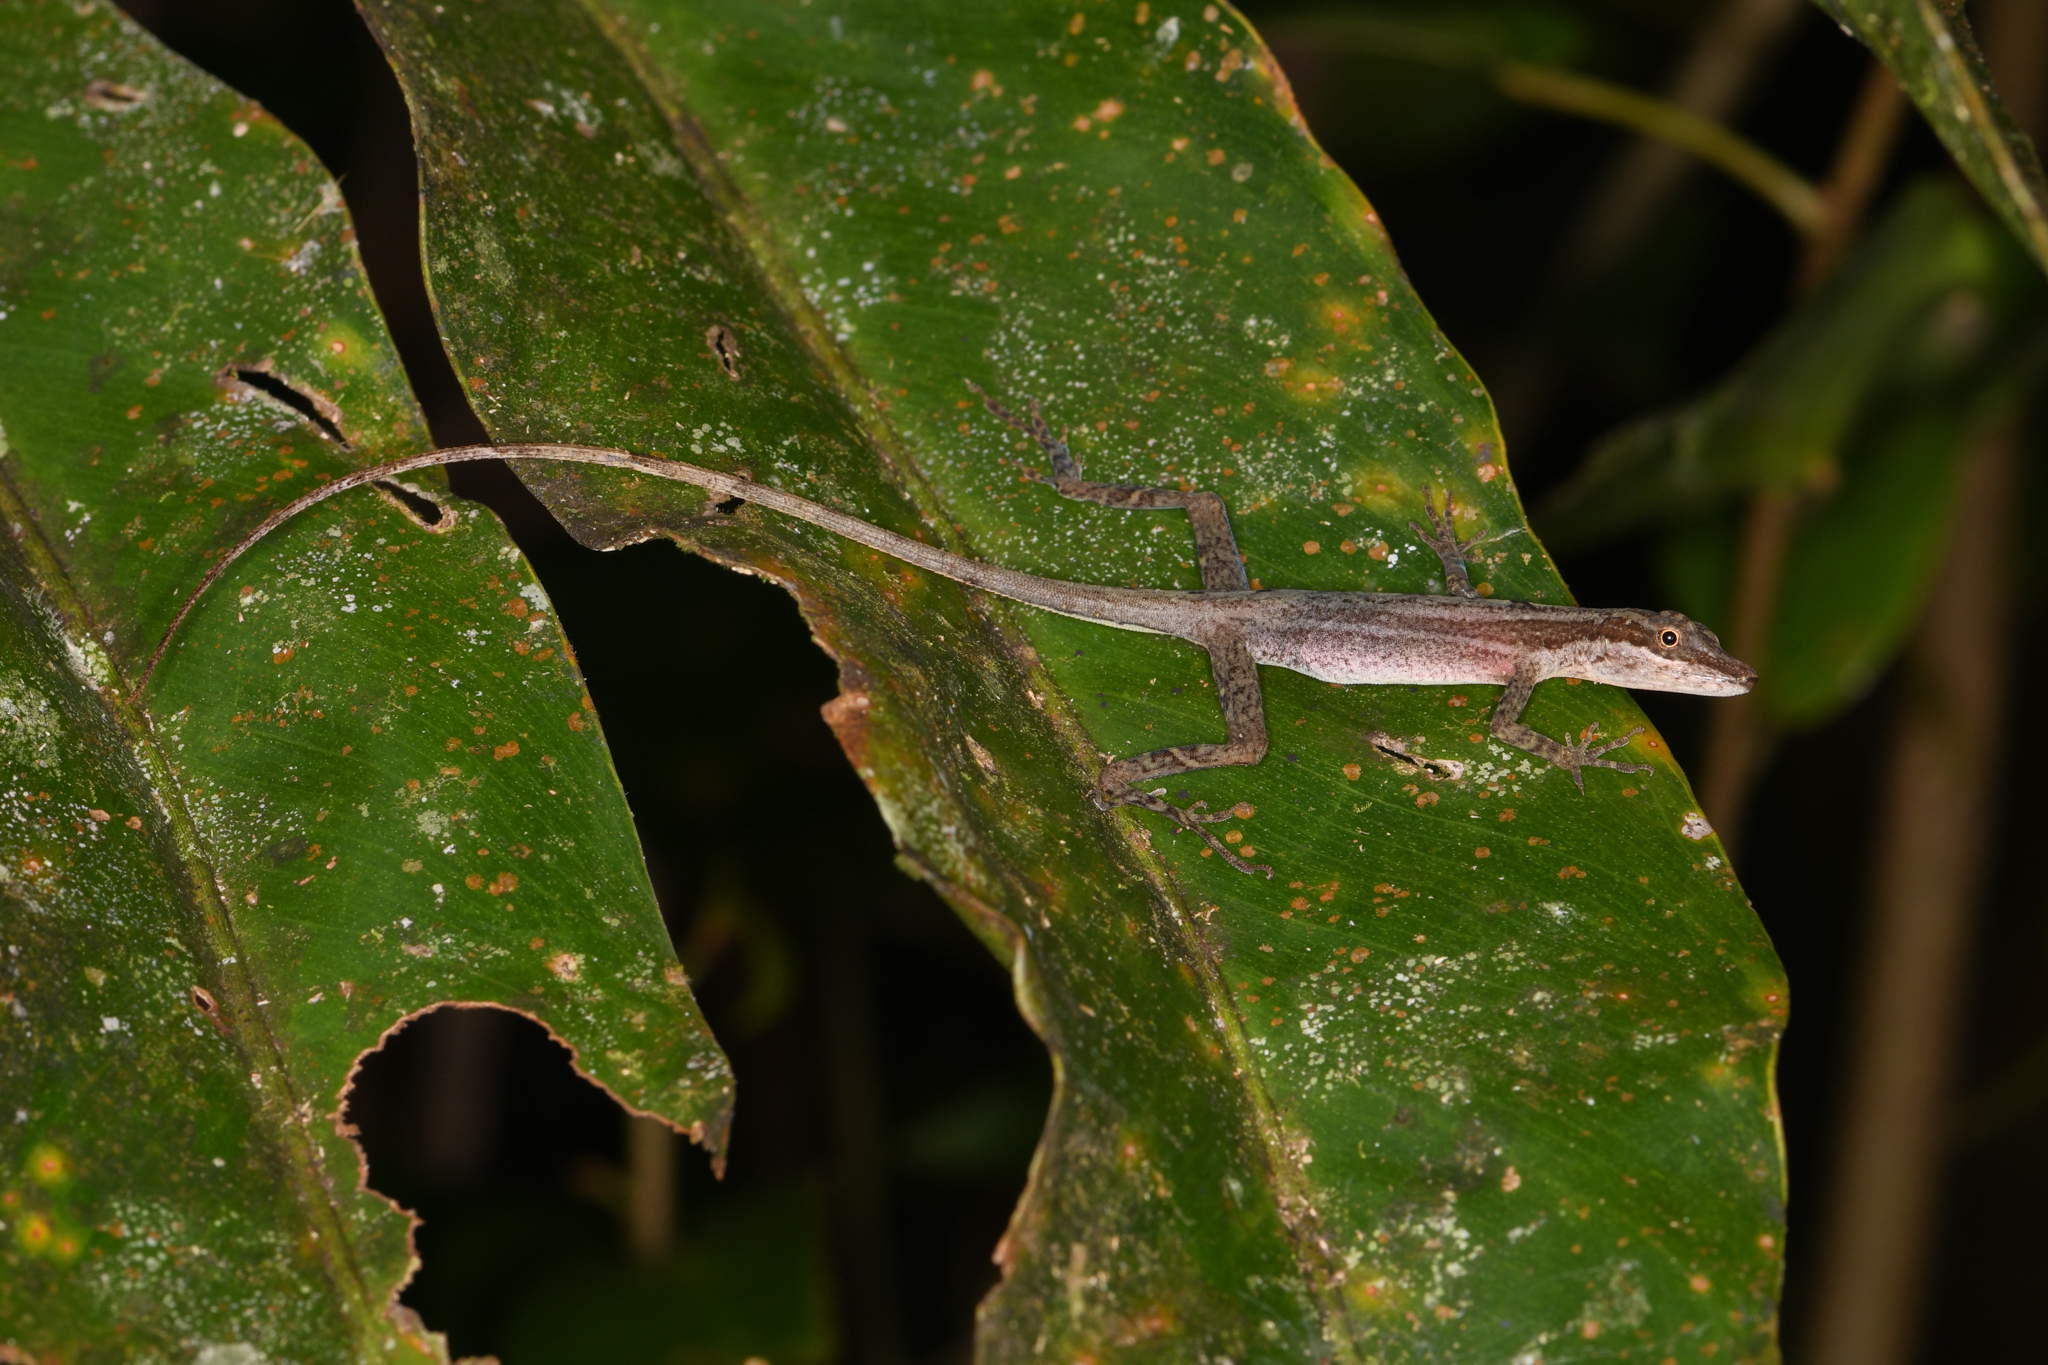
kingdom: Animalia
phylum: Chordata
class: Squamata
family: Dactyloidae
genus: Anolis
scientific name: Anolis limifrons
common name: Border anole
